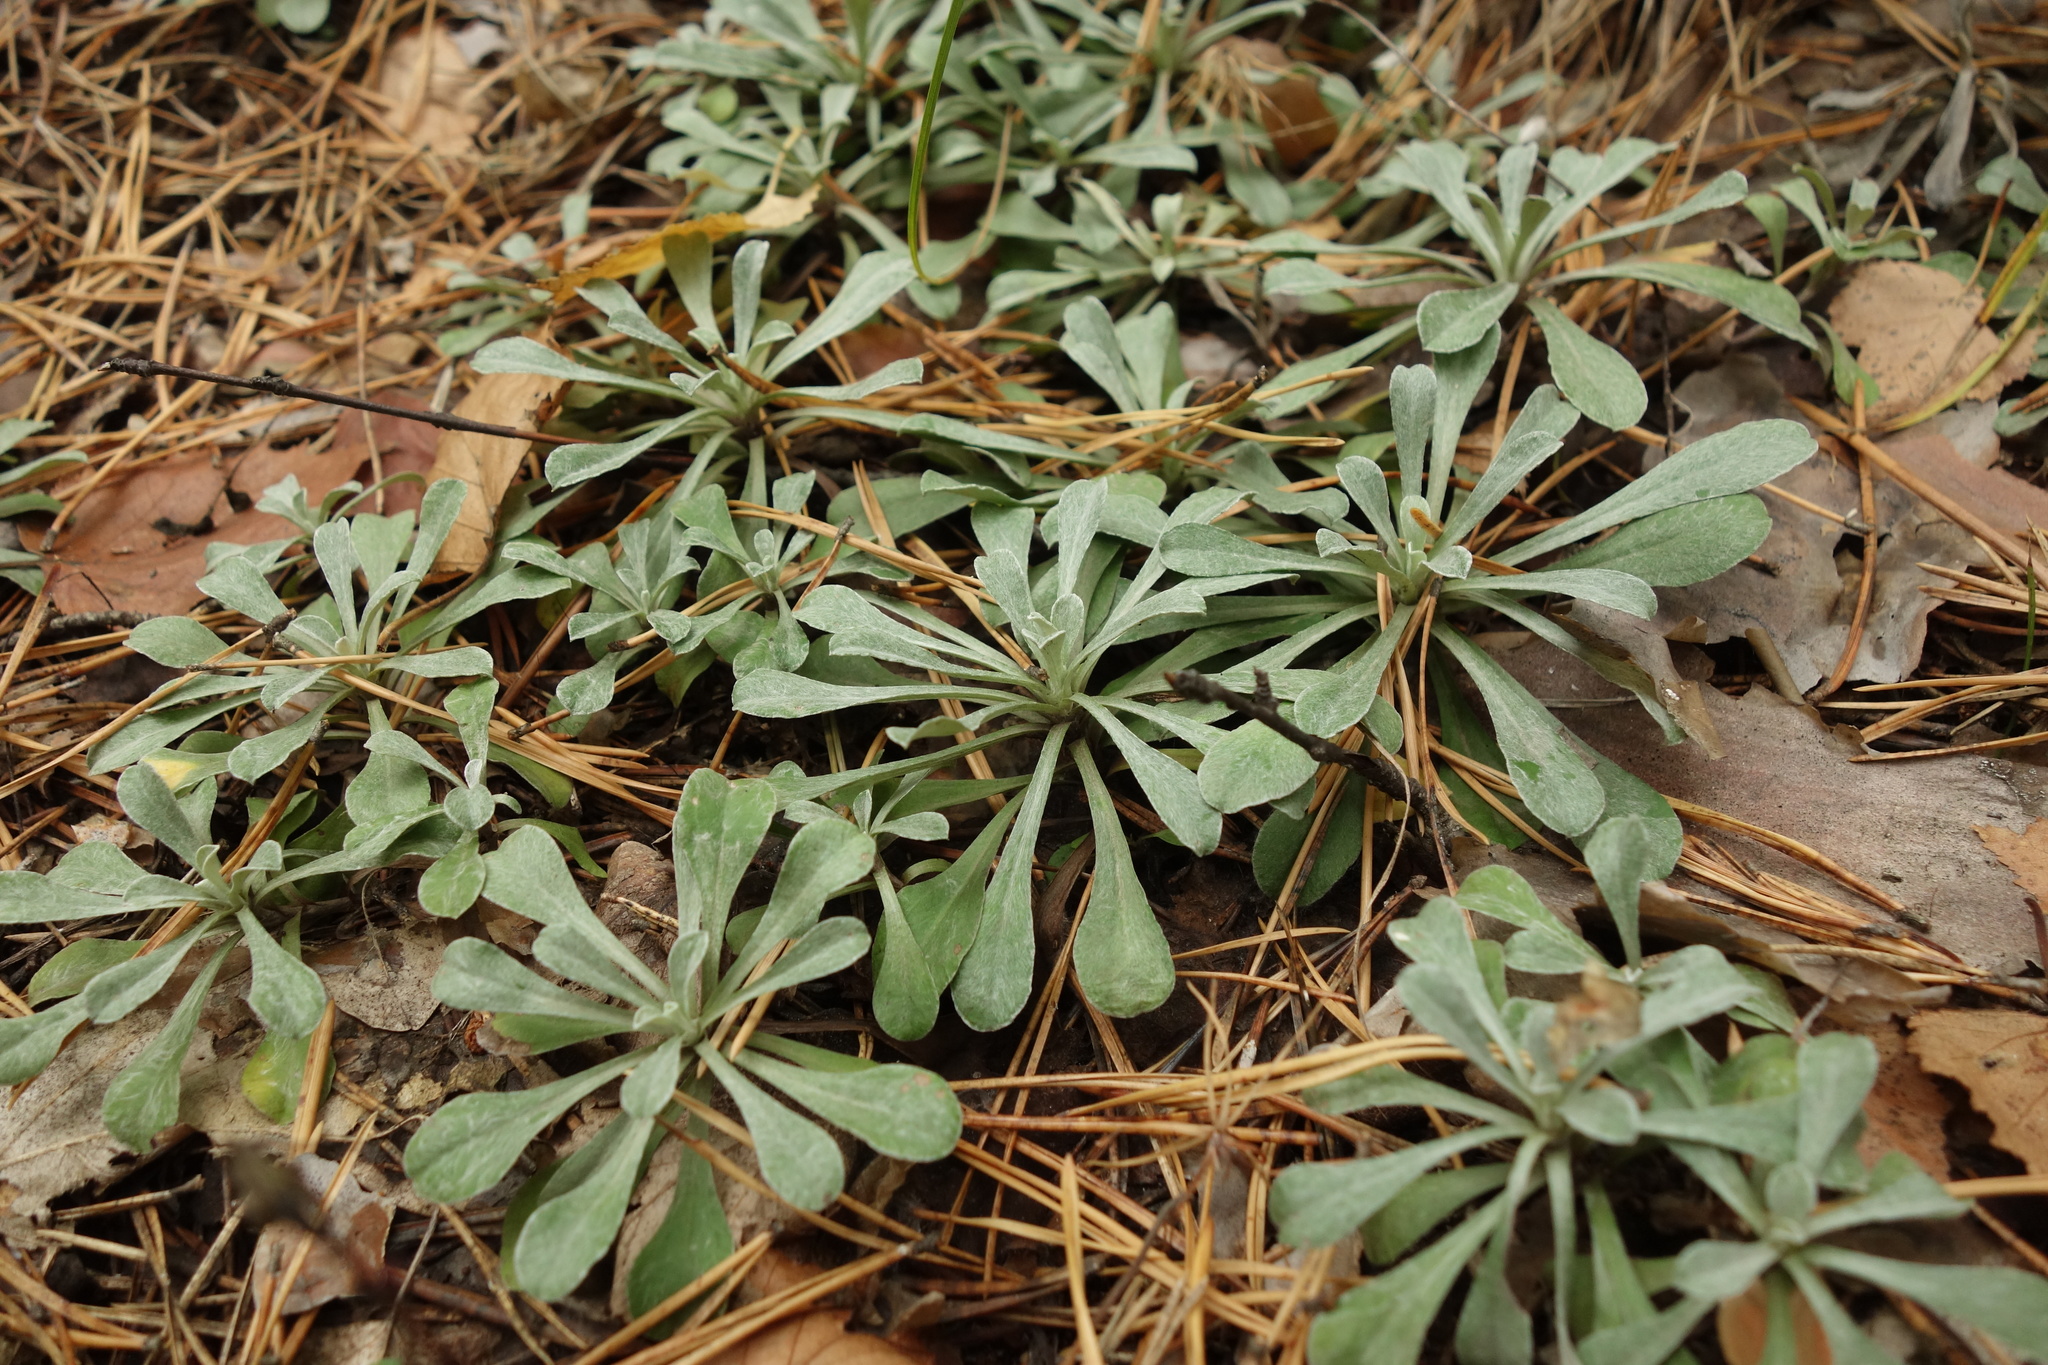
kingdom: Plantae
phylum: Tracheophyta
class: Magnoliopsida
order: Asterales
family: Asteraceae
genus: Antennaria
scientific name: Antennaria dioica
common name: Mountain everlasting
